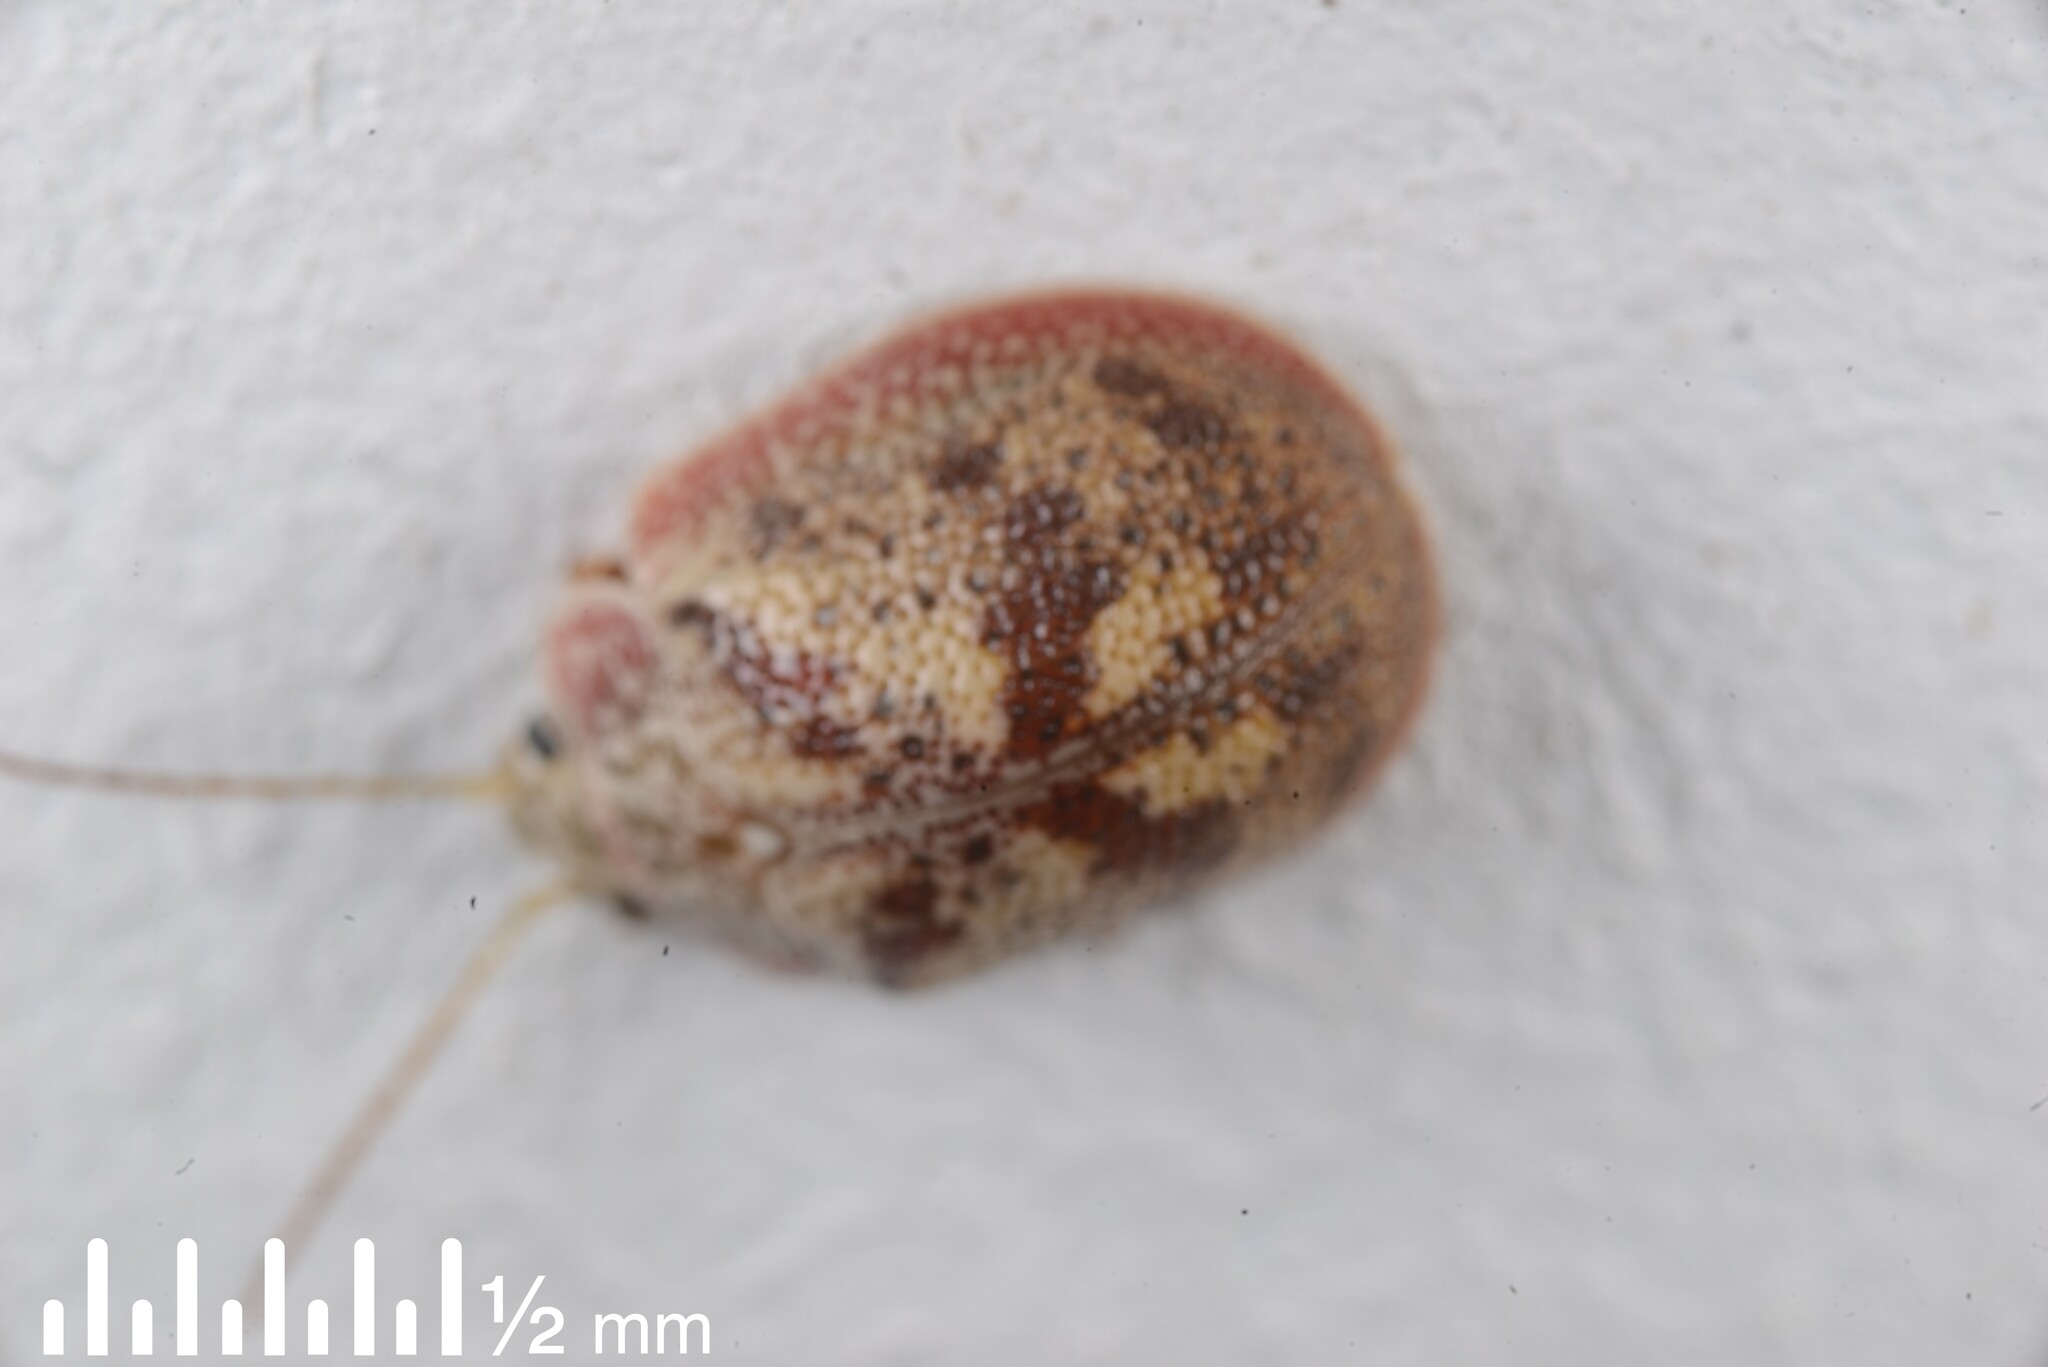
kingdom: Animalia
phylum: Arthropoda
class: Insecta
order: Coleoptera
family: Chrysomelidae
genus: Paropsis
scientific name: Paropsis charybdis
